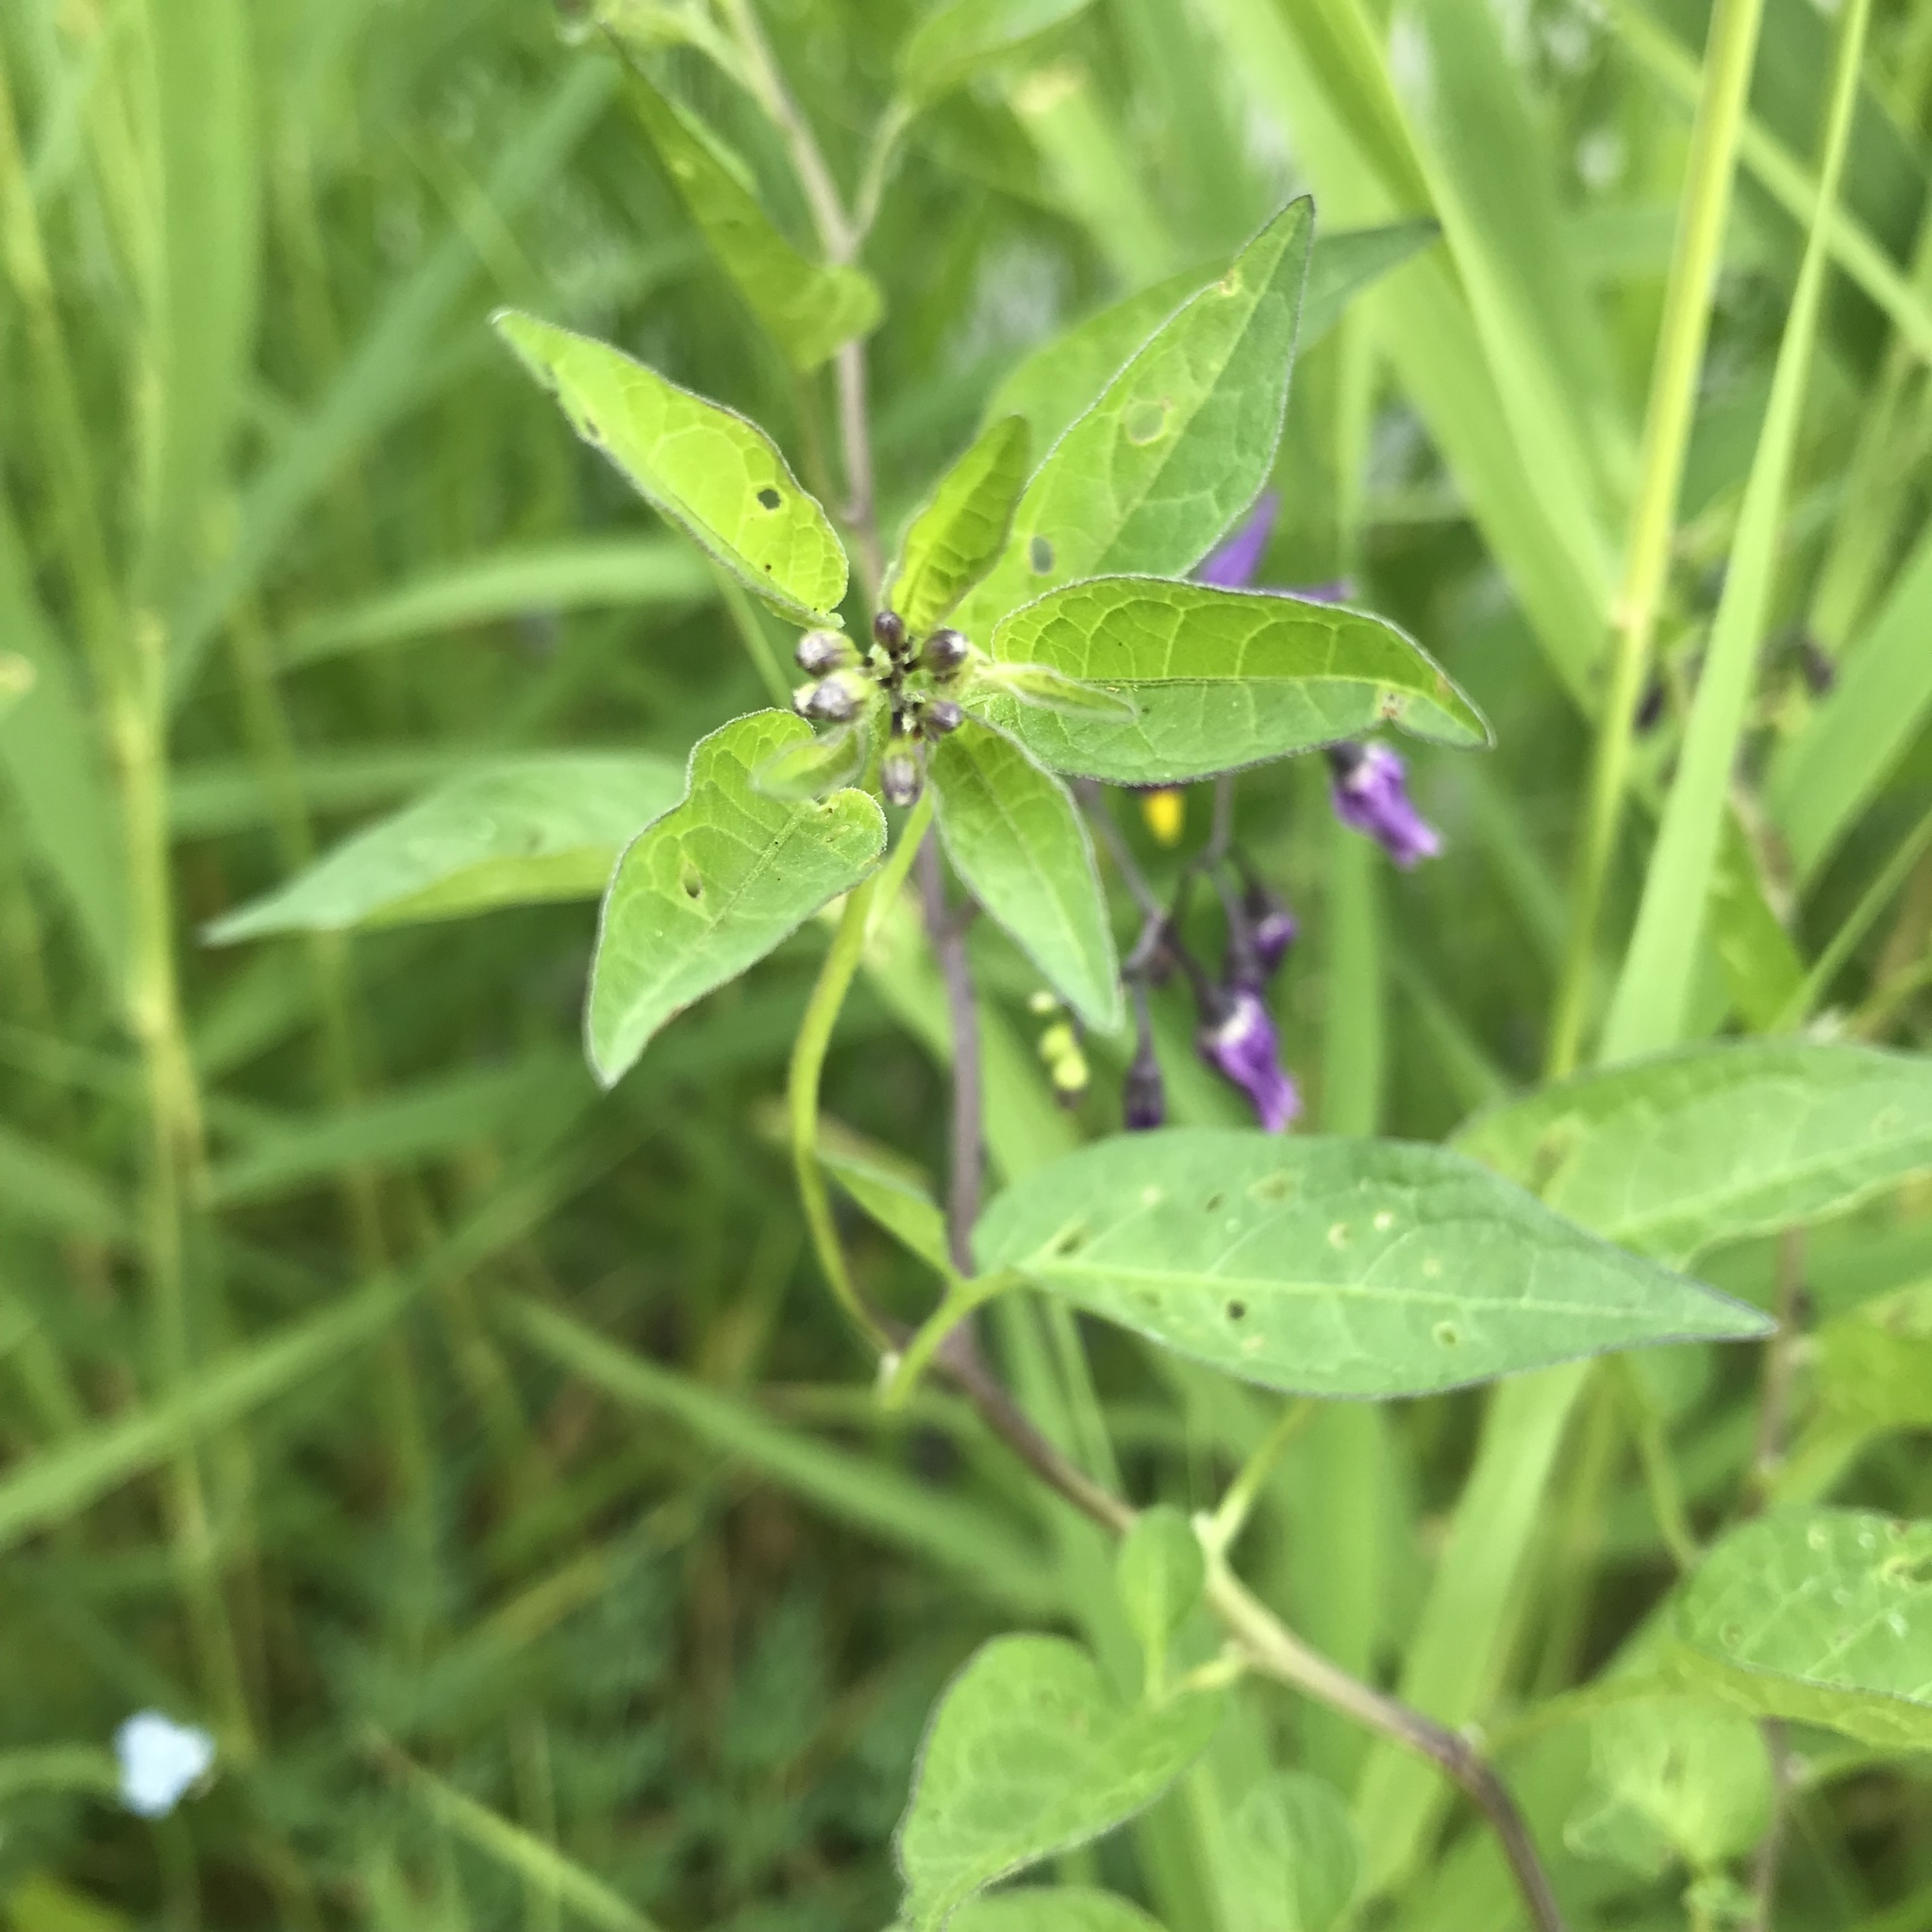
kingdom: Plantae
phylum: Tracheophyta
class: Magnoliopsida
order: Solanales
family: Solanaceae
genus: Solanum
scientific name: Solanum dulcamara
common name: Climbing nightshade
